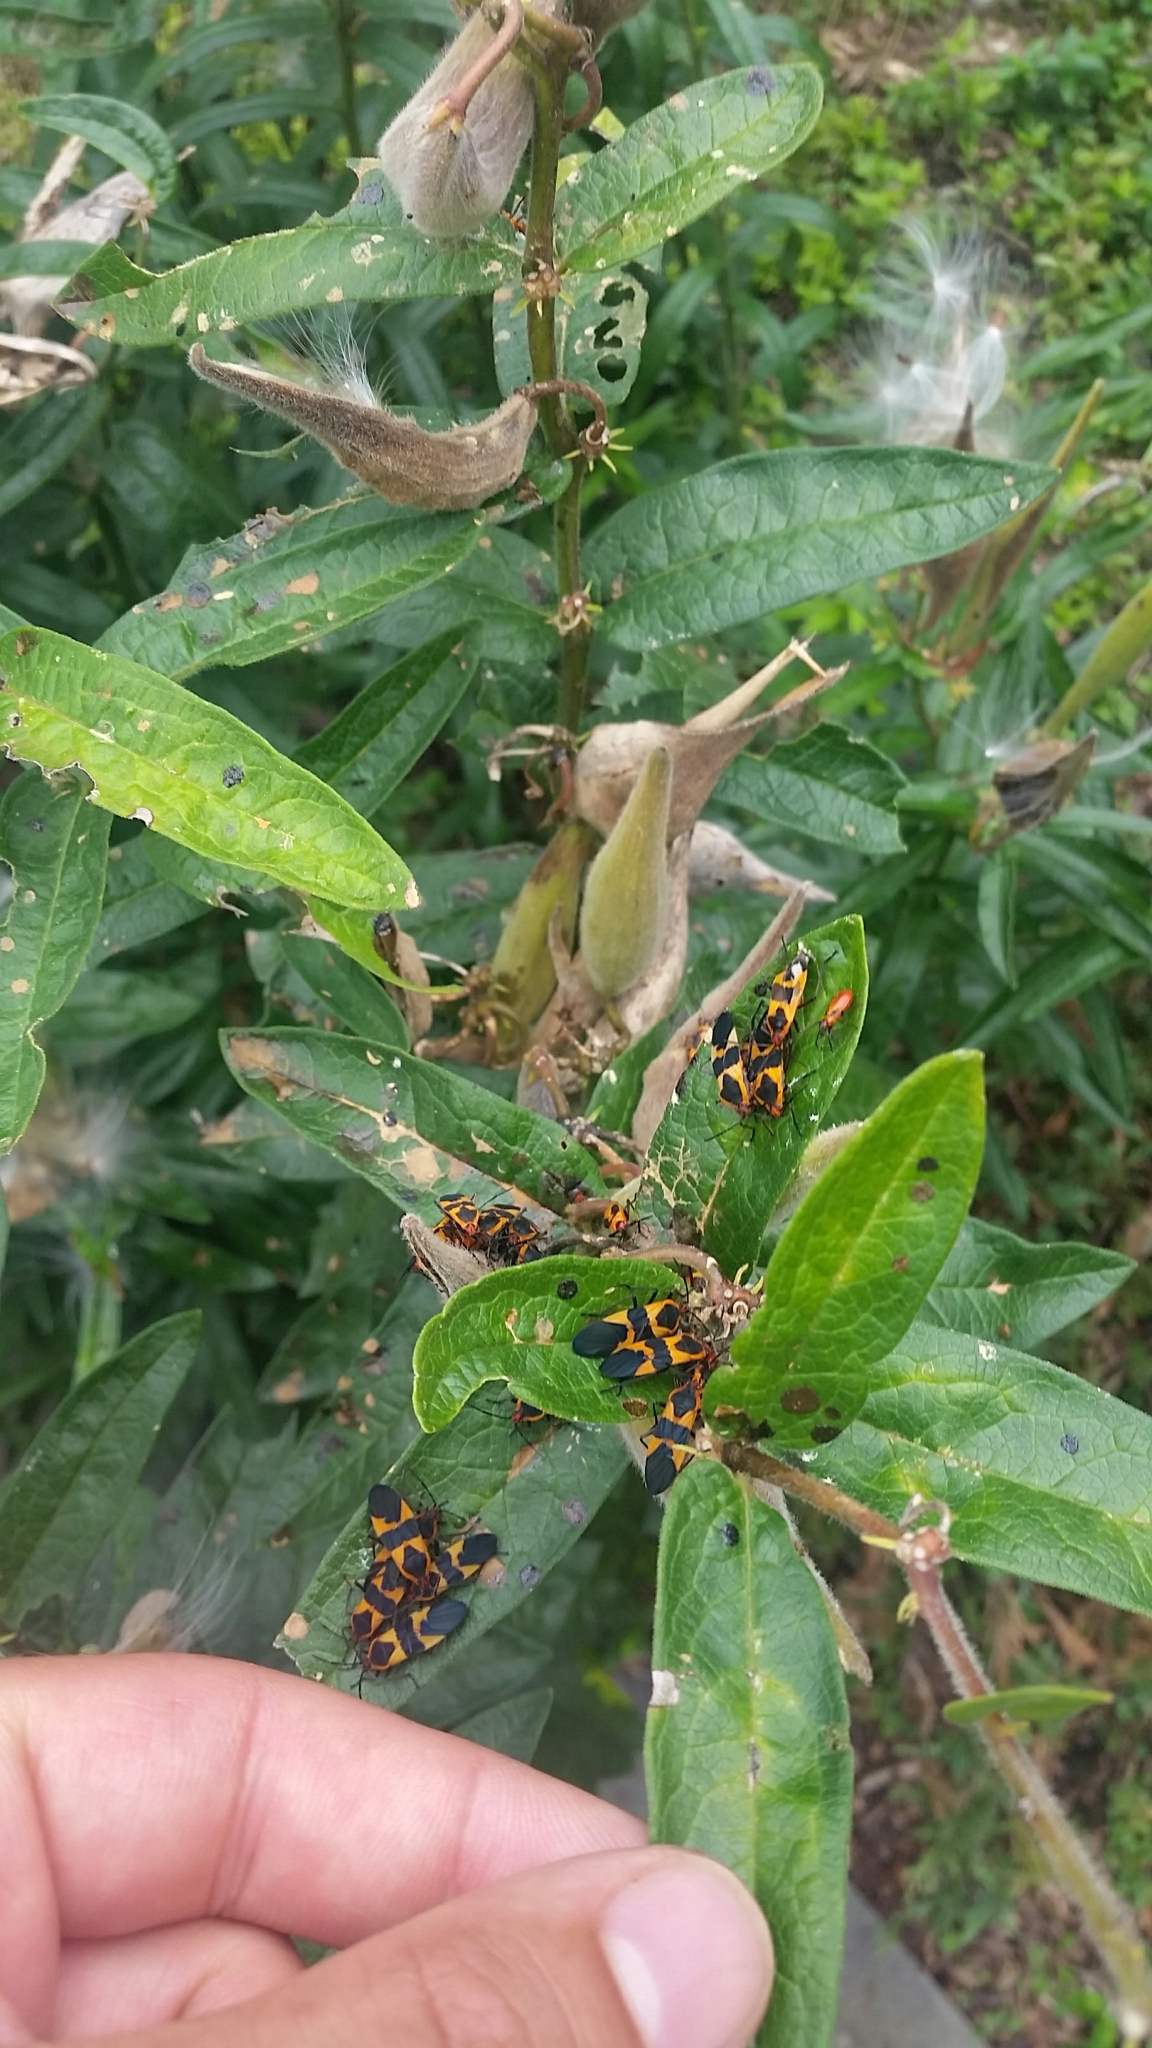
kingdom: Animalia
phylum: Arthropoda
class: Insecta
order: Hemiptera
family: Lygaeidae
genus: Oncopeltus
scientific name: Oncopeltus fasciatus
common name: Large milkweed bug
